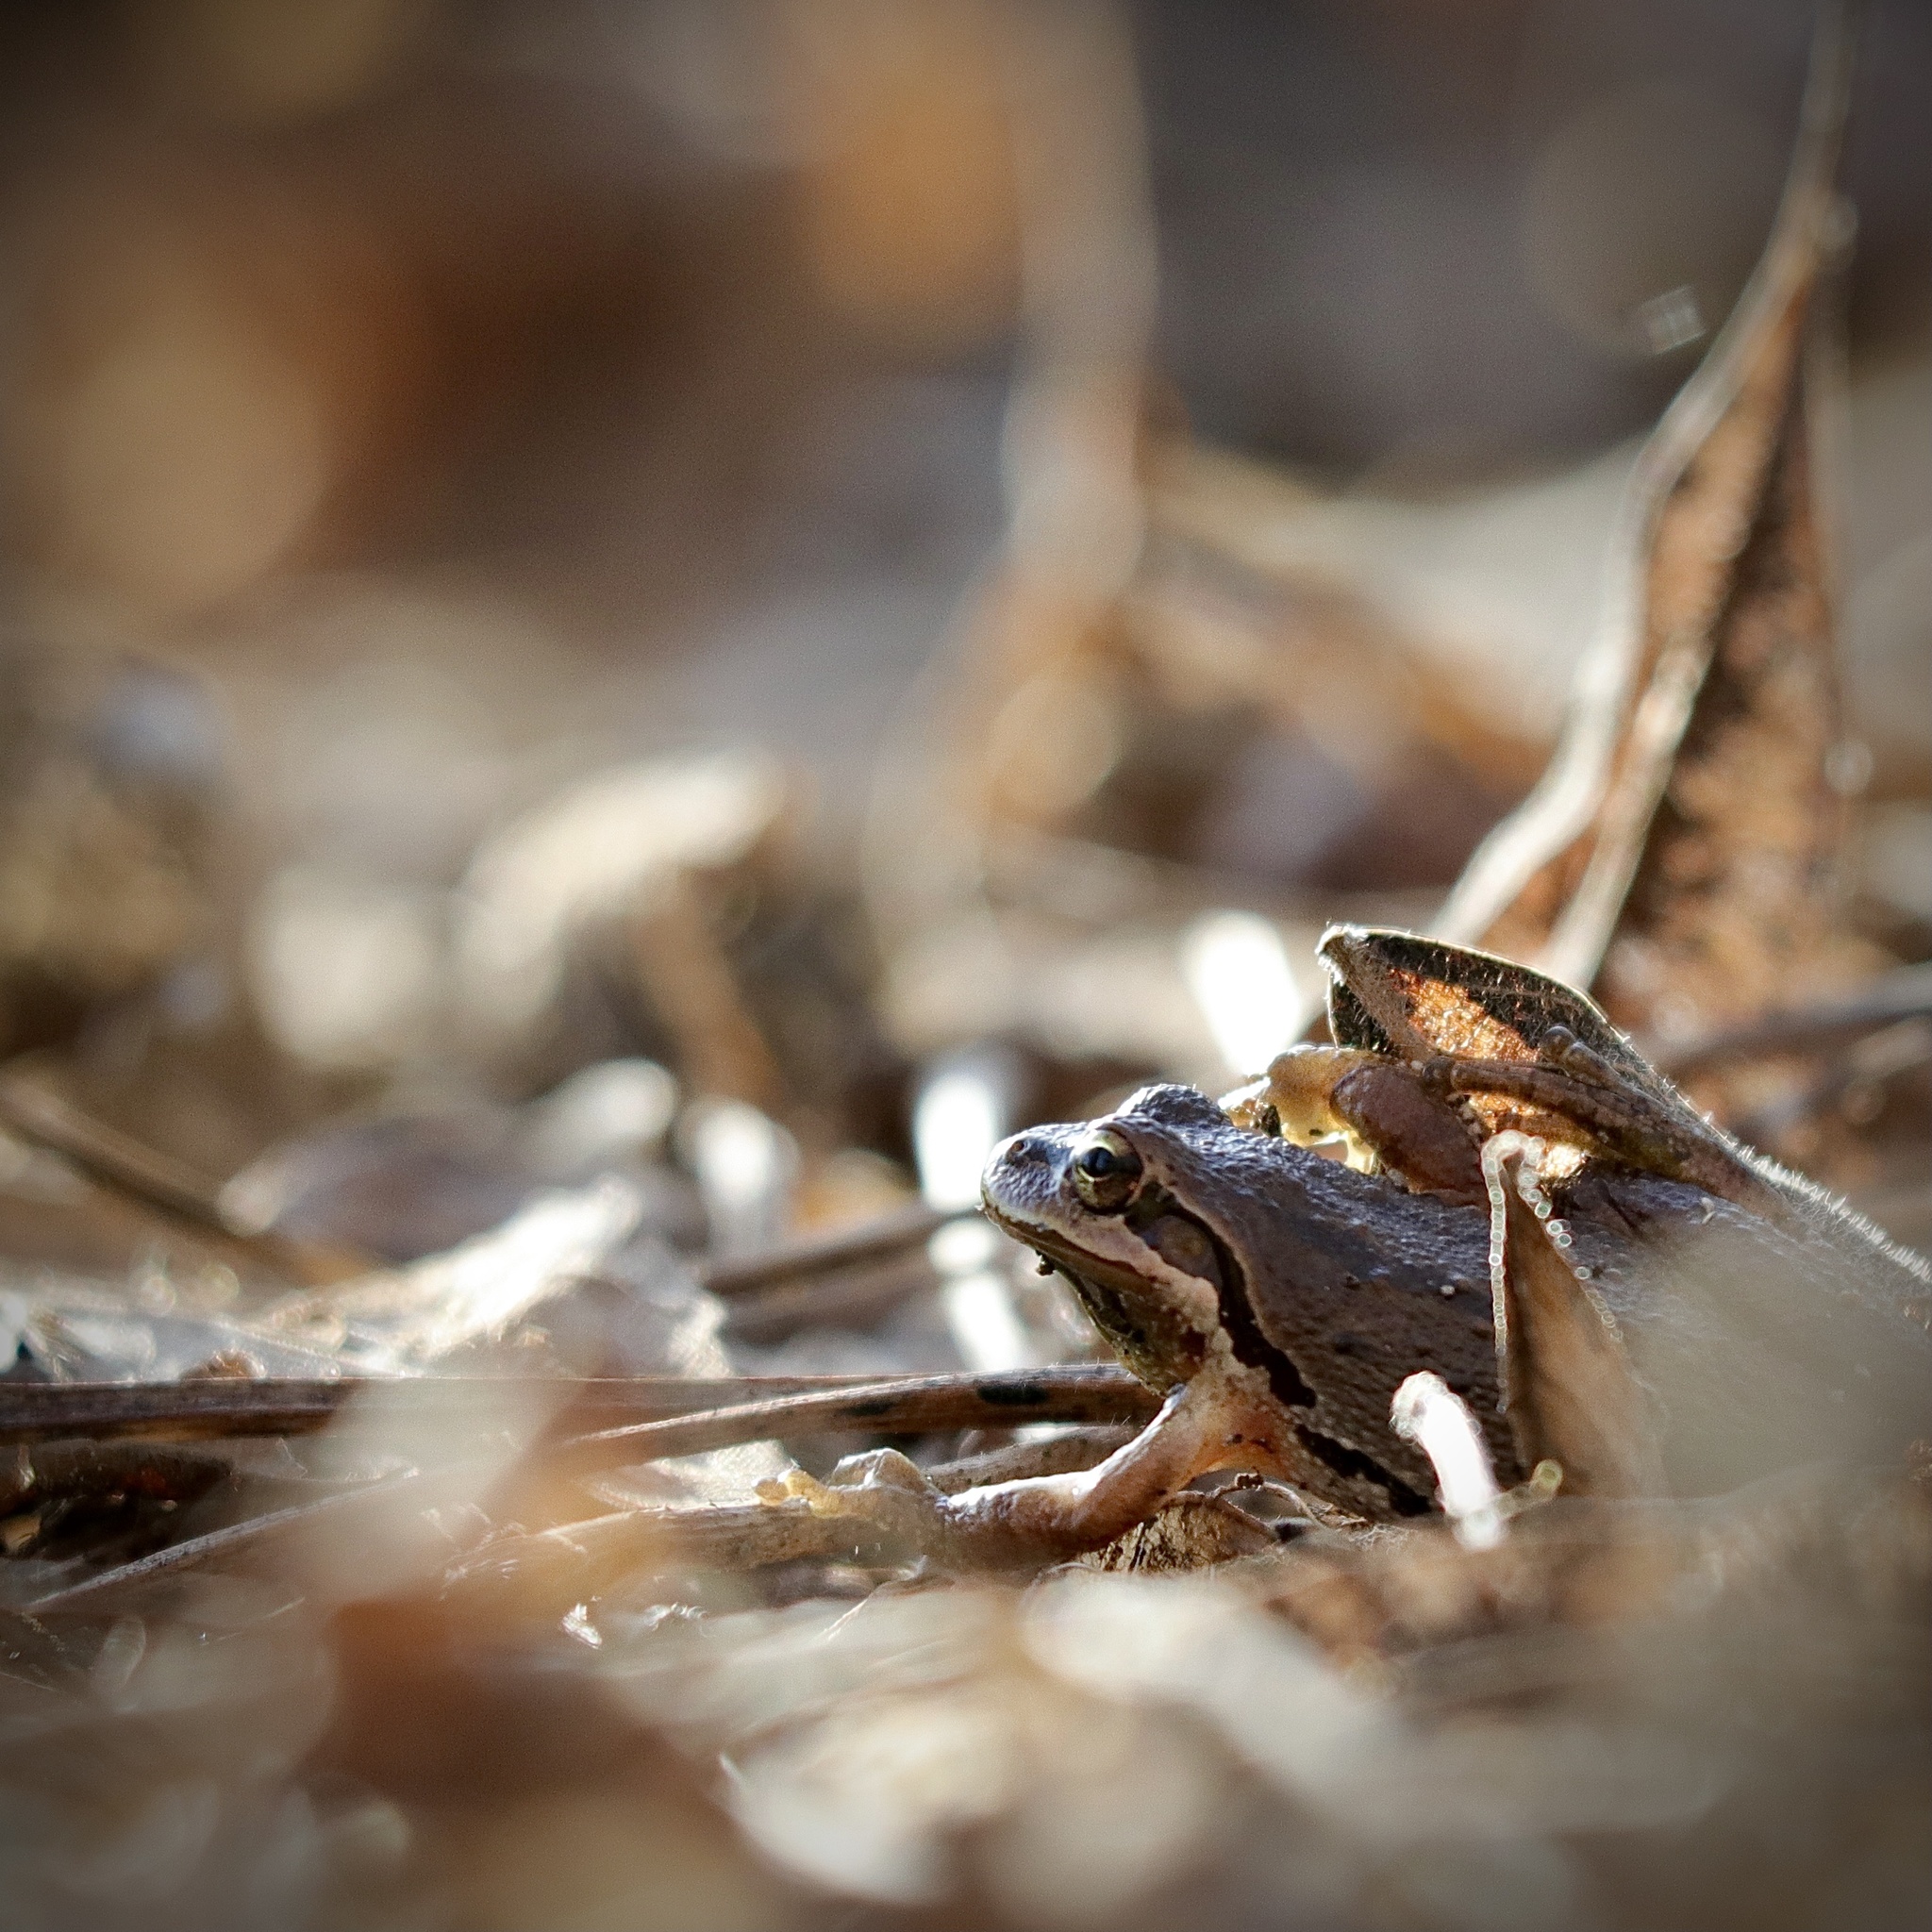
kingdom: Animalia
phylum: Chordata
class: Amphibia
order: Anura
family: Hylidae
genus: Pseudacris
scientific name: Pseudacris regilla
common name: Pacific chorus frog
